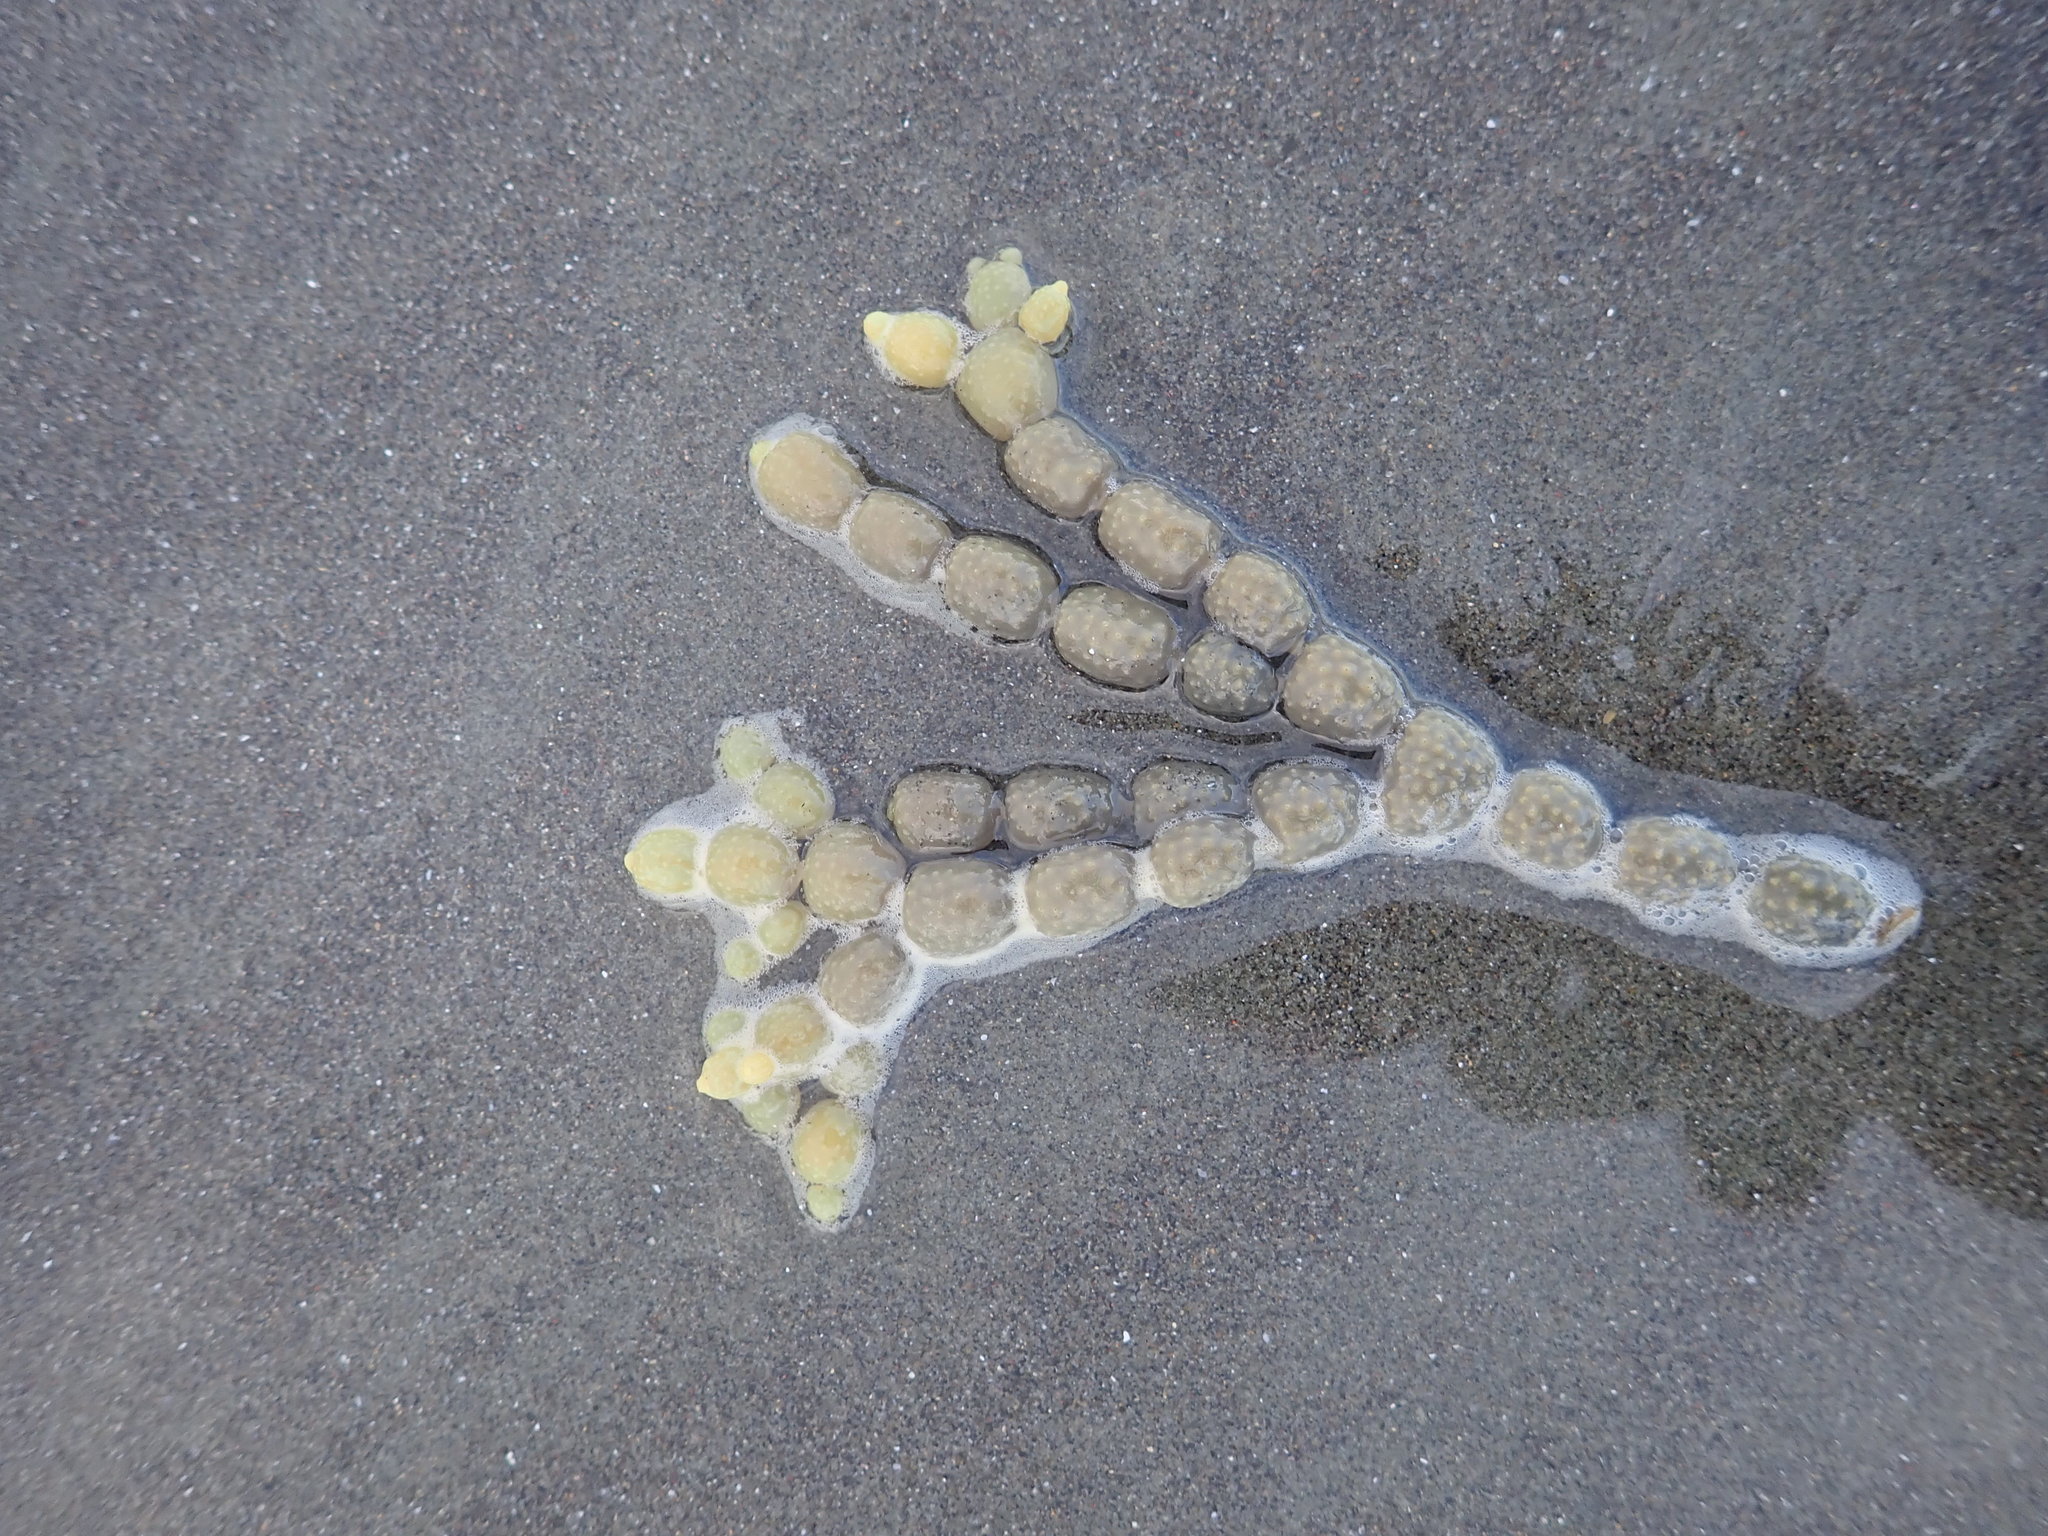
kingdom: Chromista
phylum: Ochrophyta
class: Phaeophyceae
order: Fucales
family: Hormosiraceae
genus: Hormosira
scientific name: Hormosira banksii
